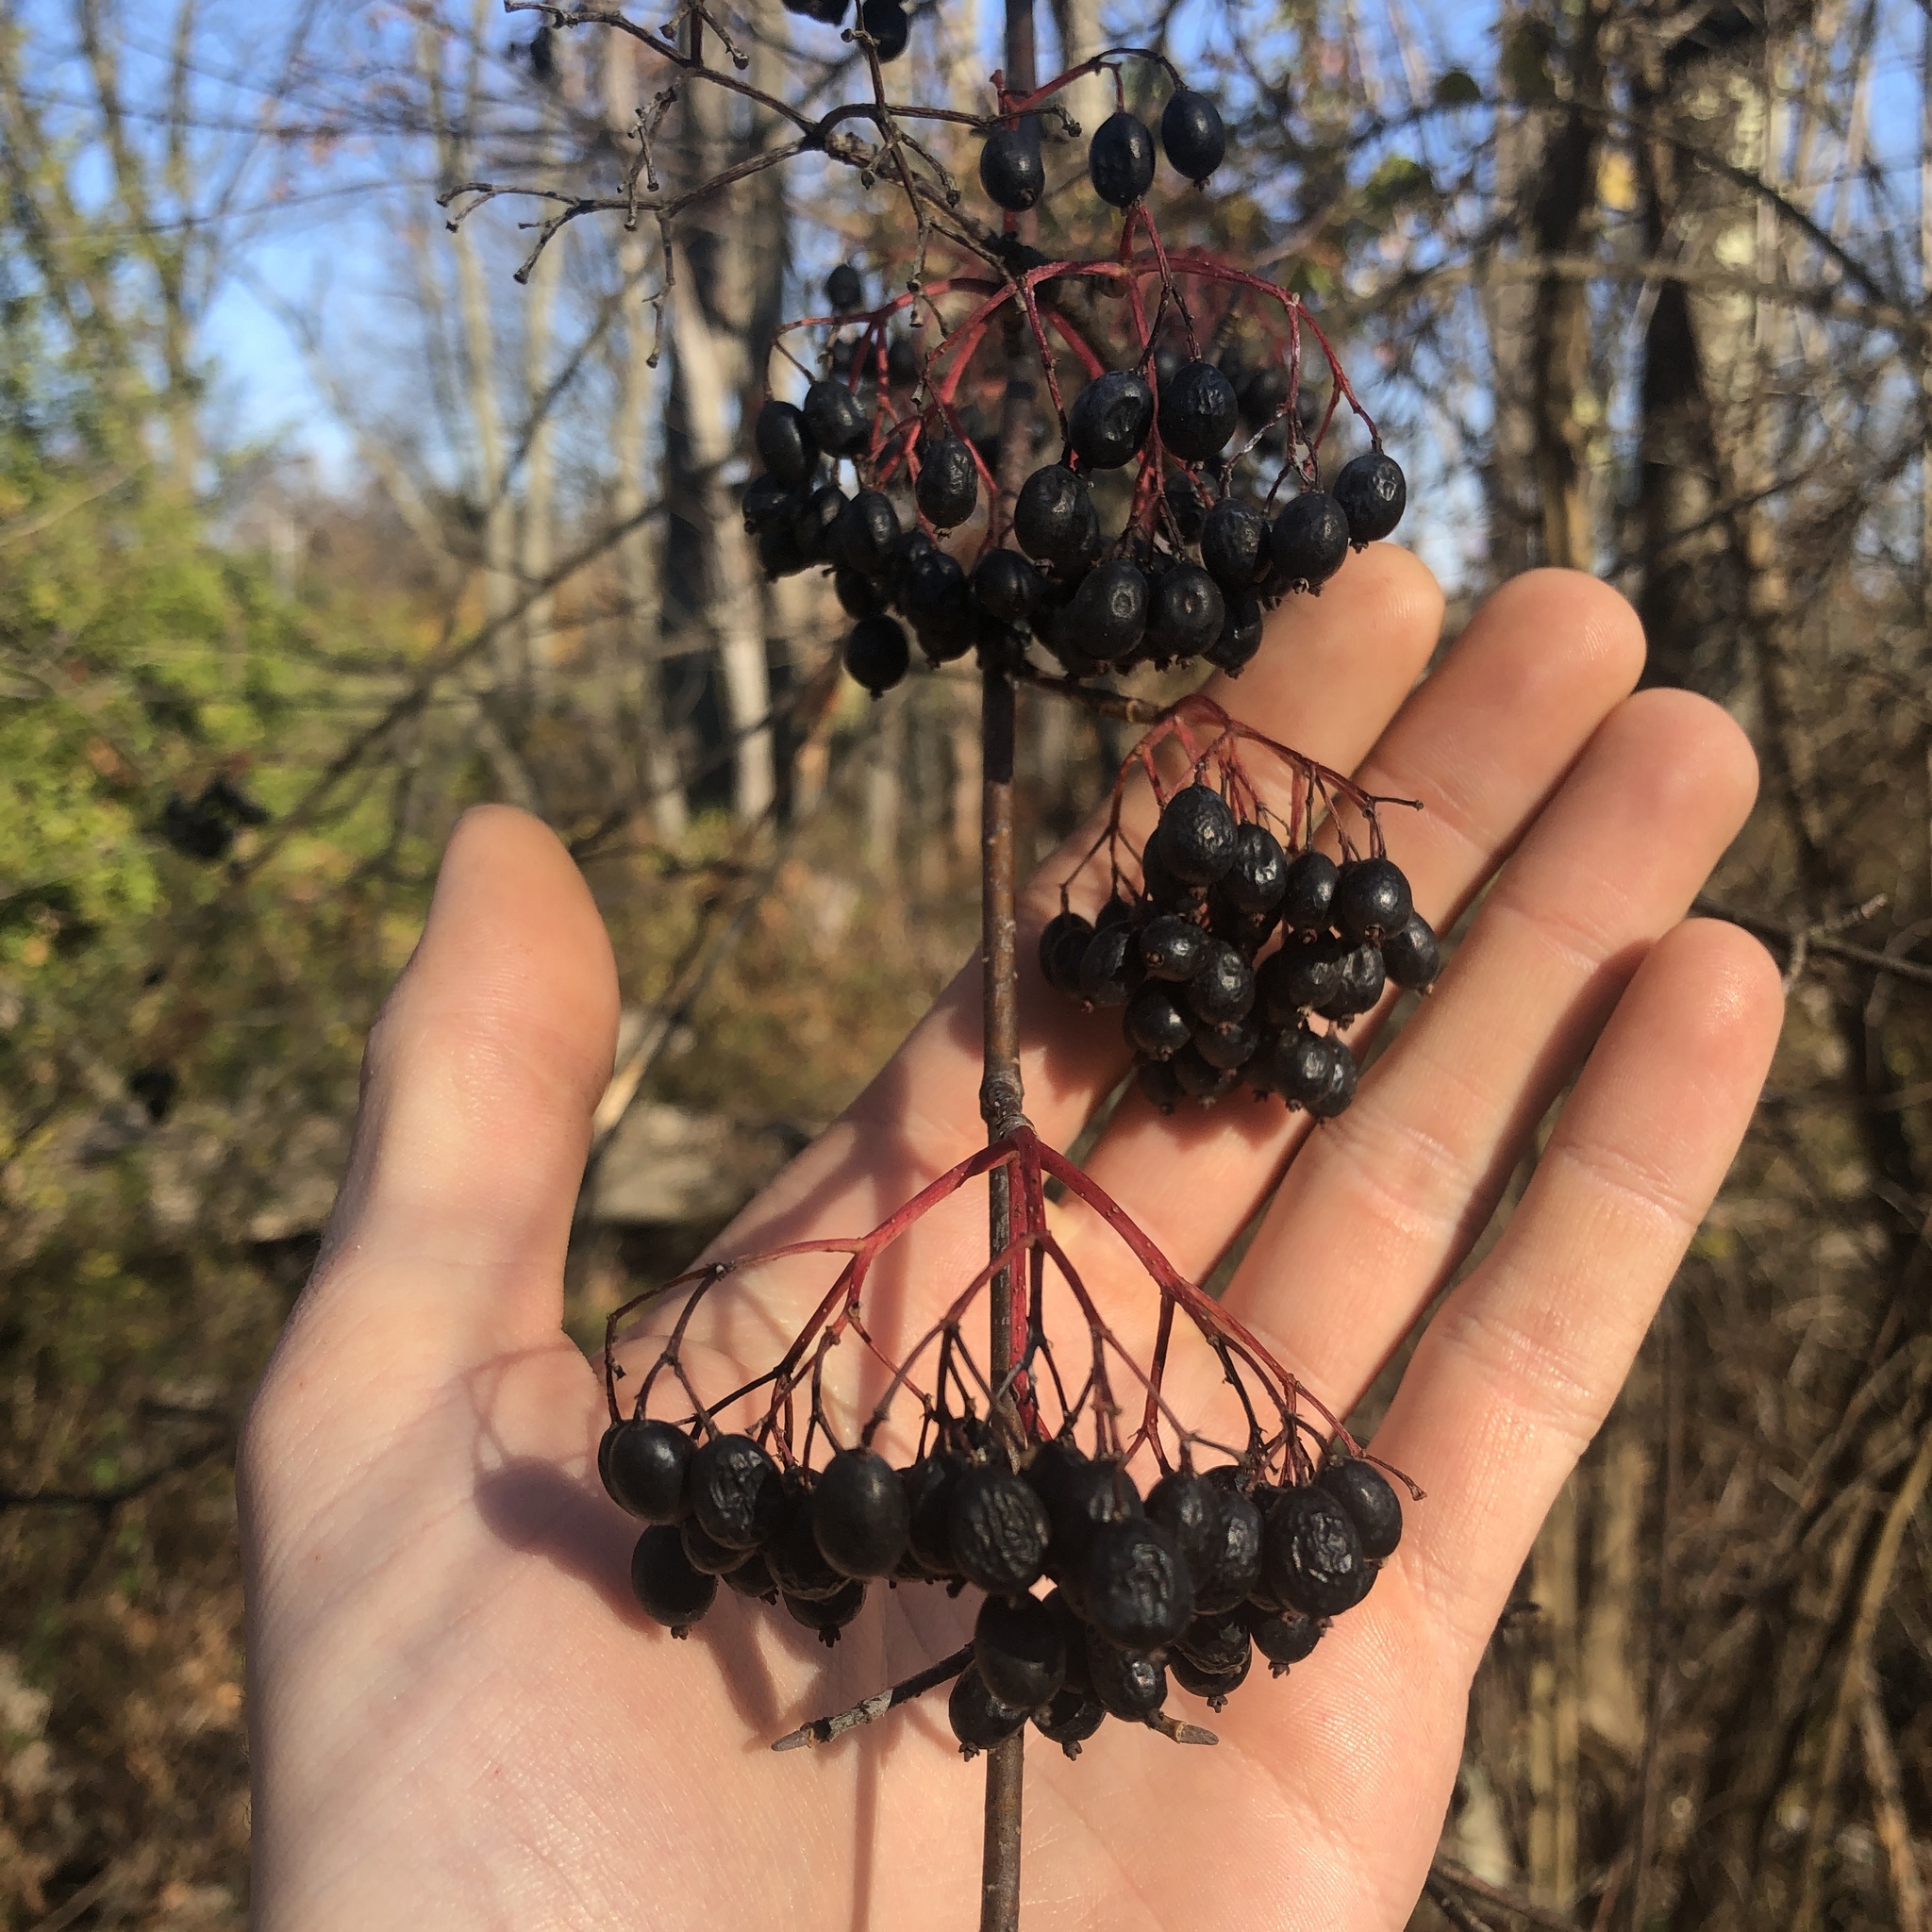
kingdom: Plantae
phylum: Tracheophyta
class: Magnoliopsida
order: Dipsacales
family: Viburnaceae
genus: Viburnum
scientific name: Viburnum prunifolium
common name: Black haw
